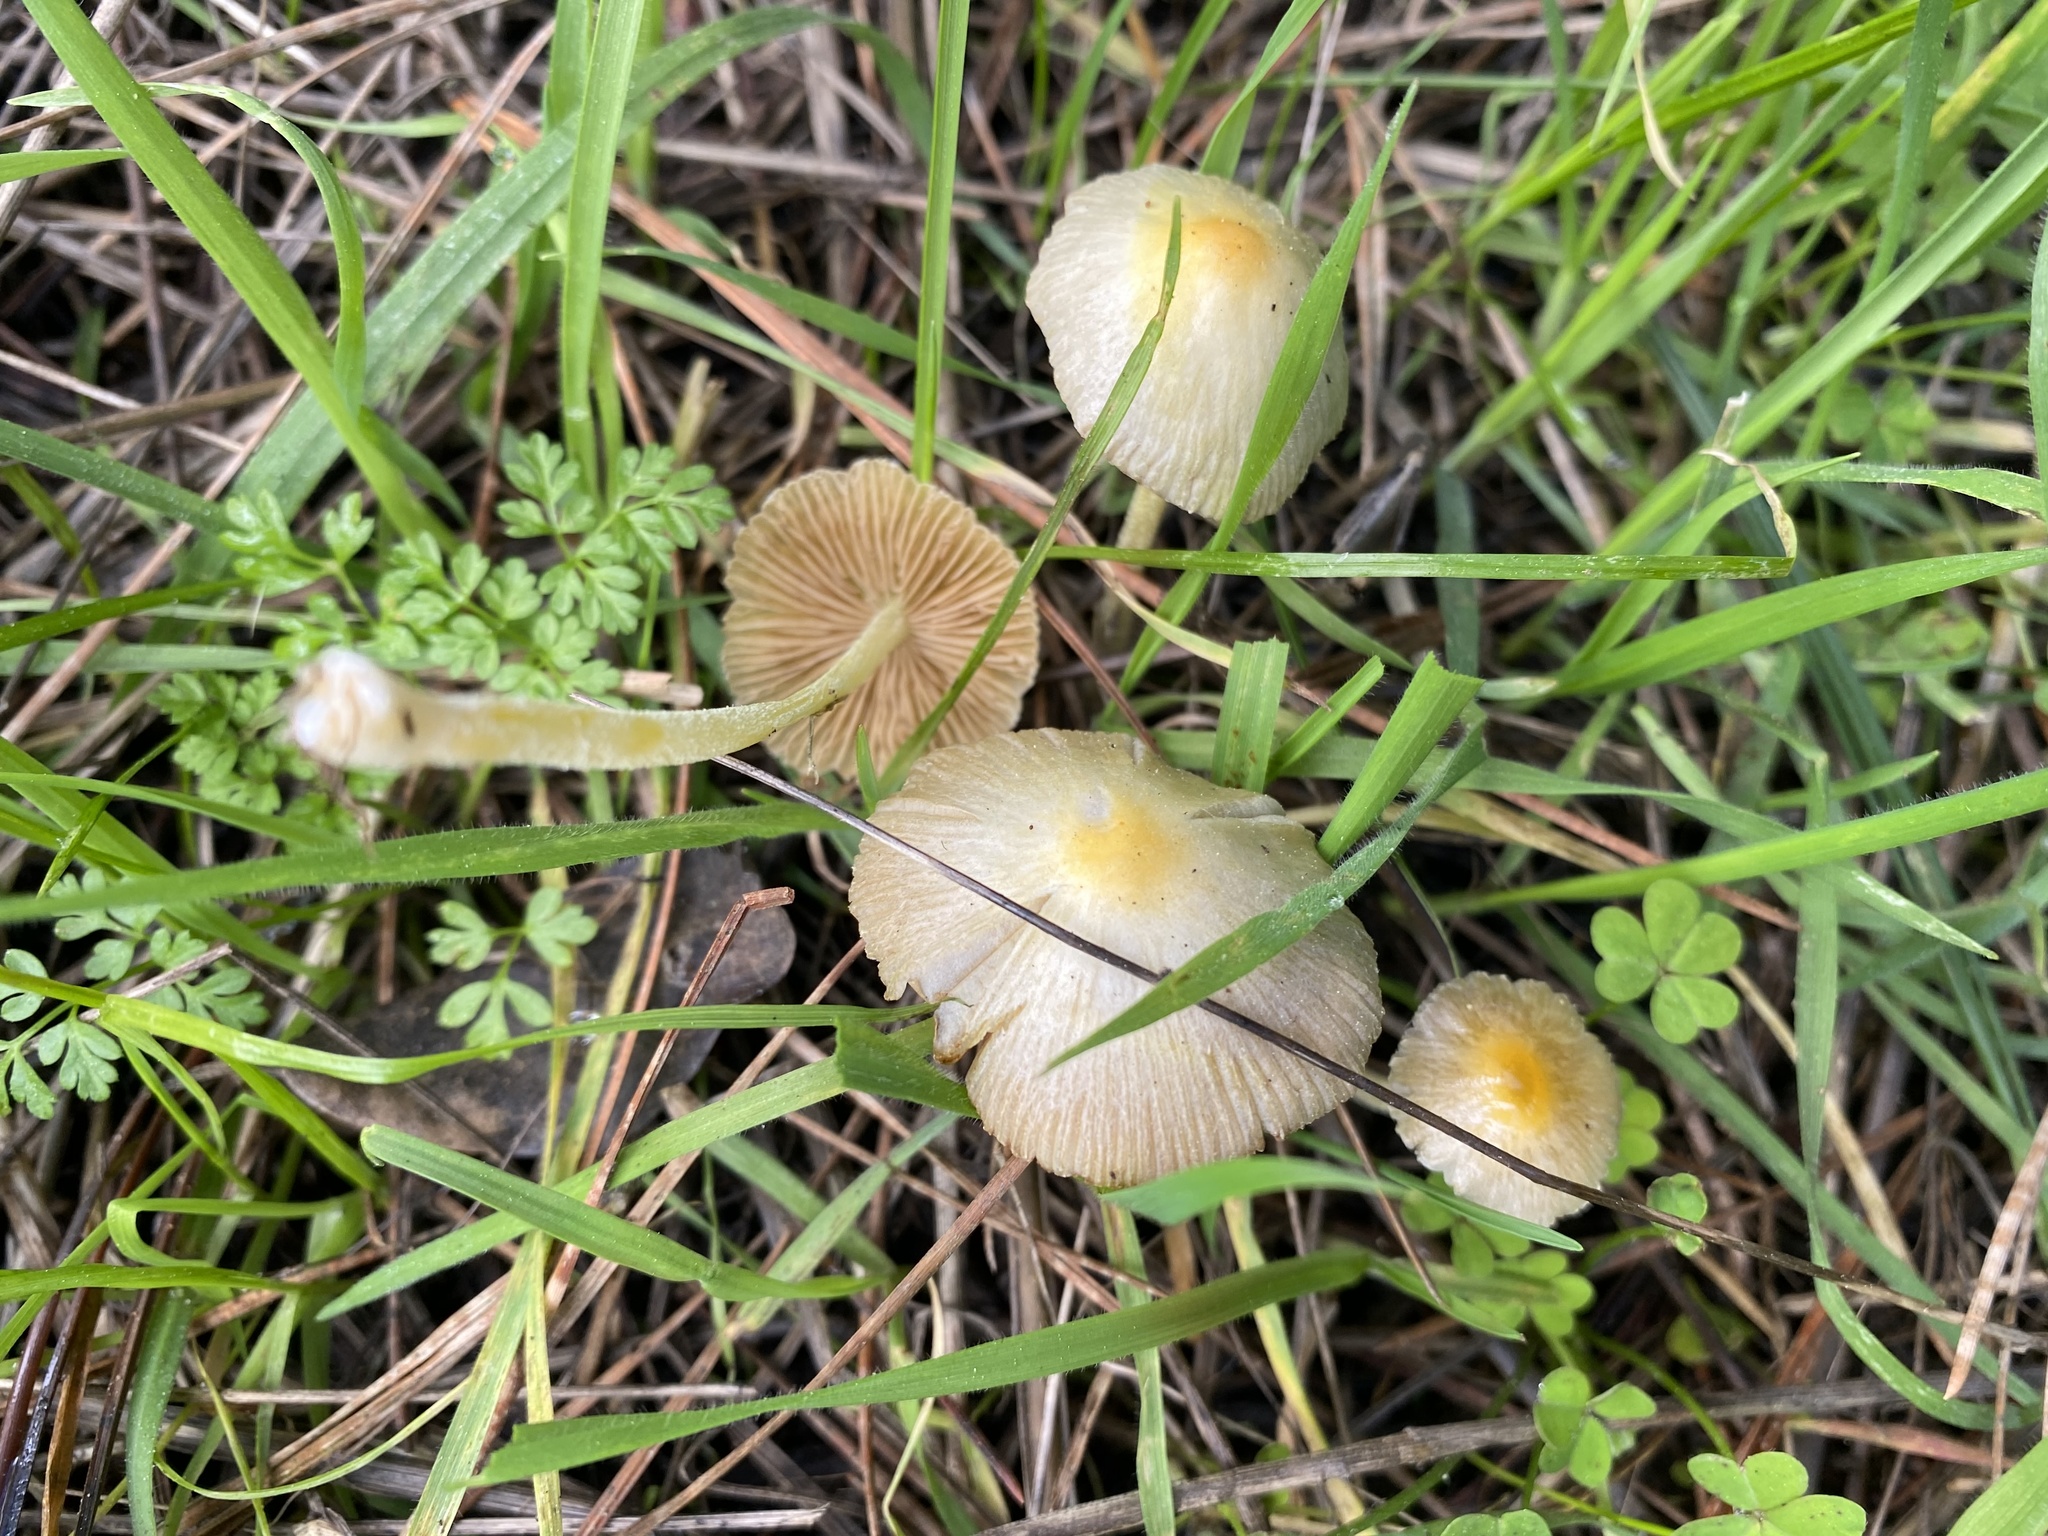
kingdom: Fungi
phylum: Basidiomycota
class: Agaricomycetes
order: Agaricales
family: Bolbitiaceae
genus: Bolbitius
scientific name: Bolbitius titubans
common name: Yellow fieldcap
